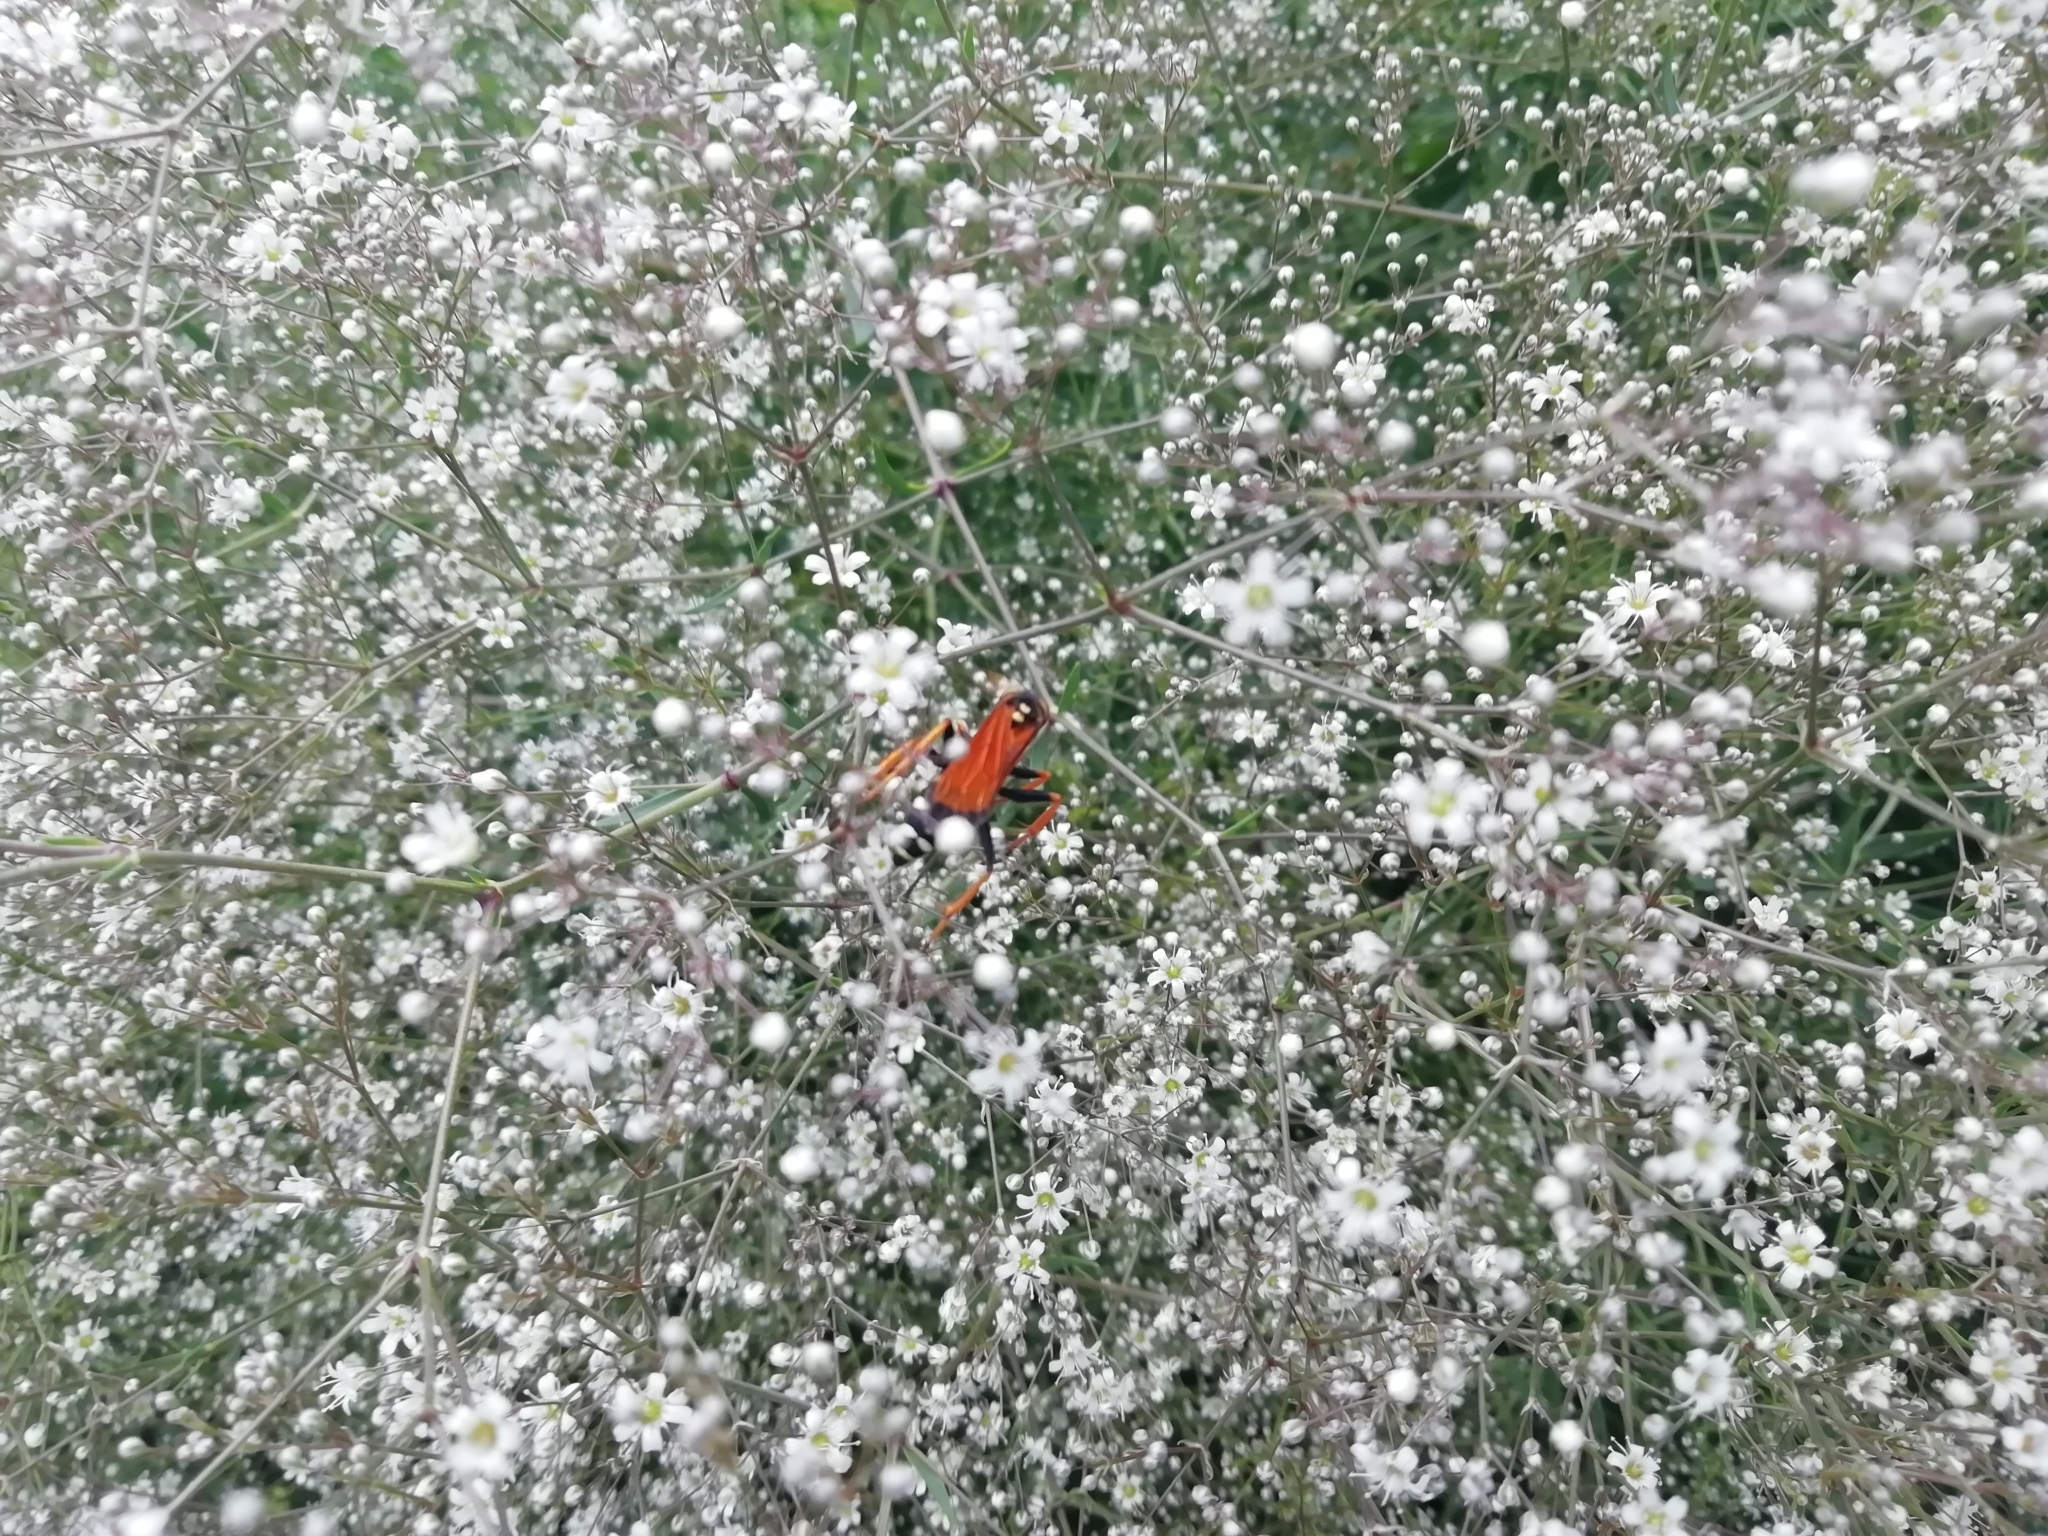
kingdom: Animalia
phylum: Arthropoda
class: Insecta
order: Hymenoptera
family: Pompilidae
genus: Parabatozonus
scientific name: Parabatozonus lacerticida
